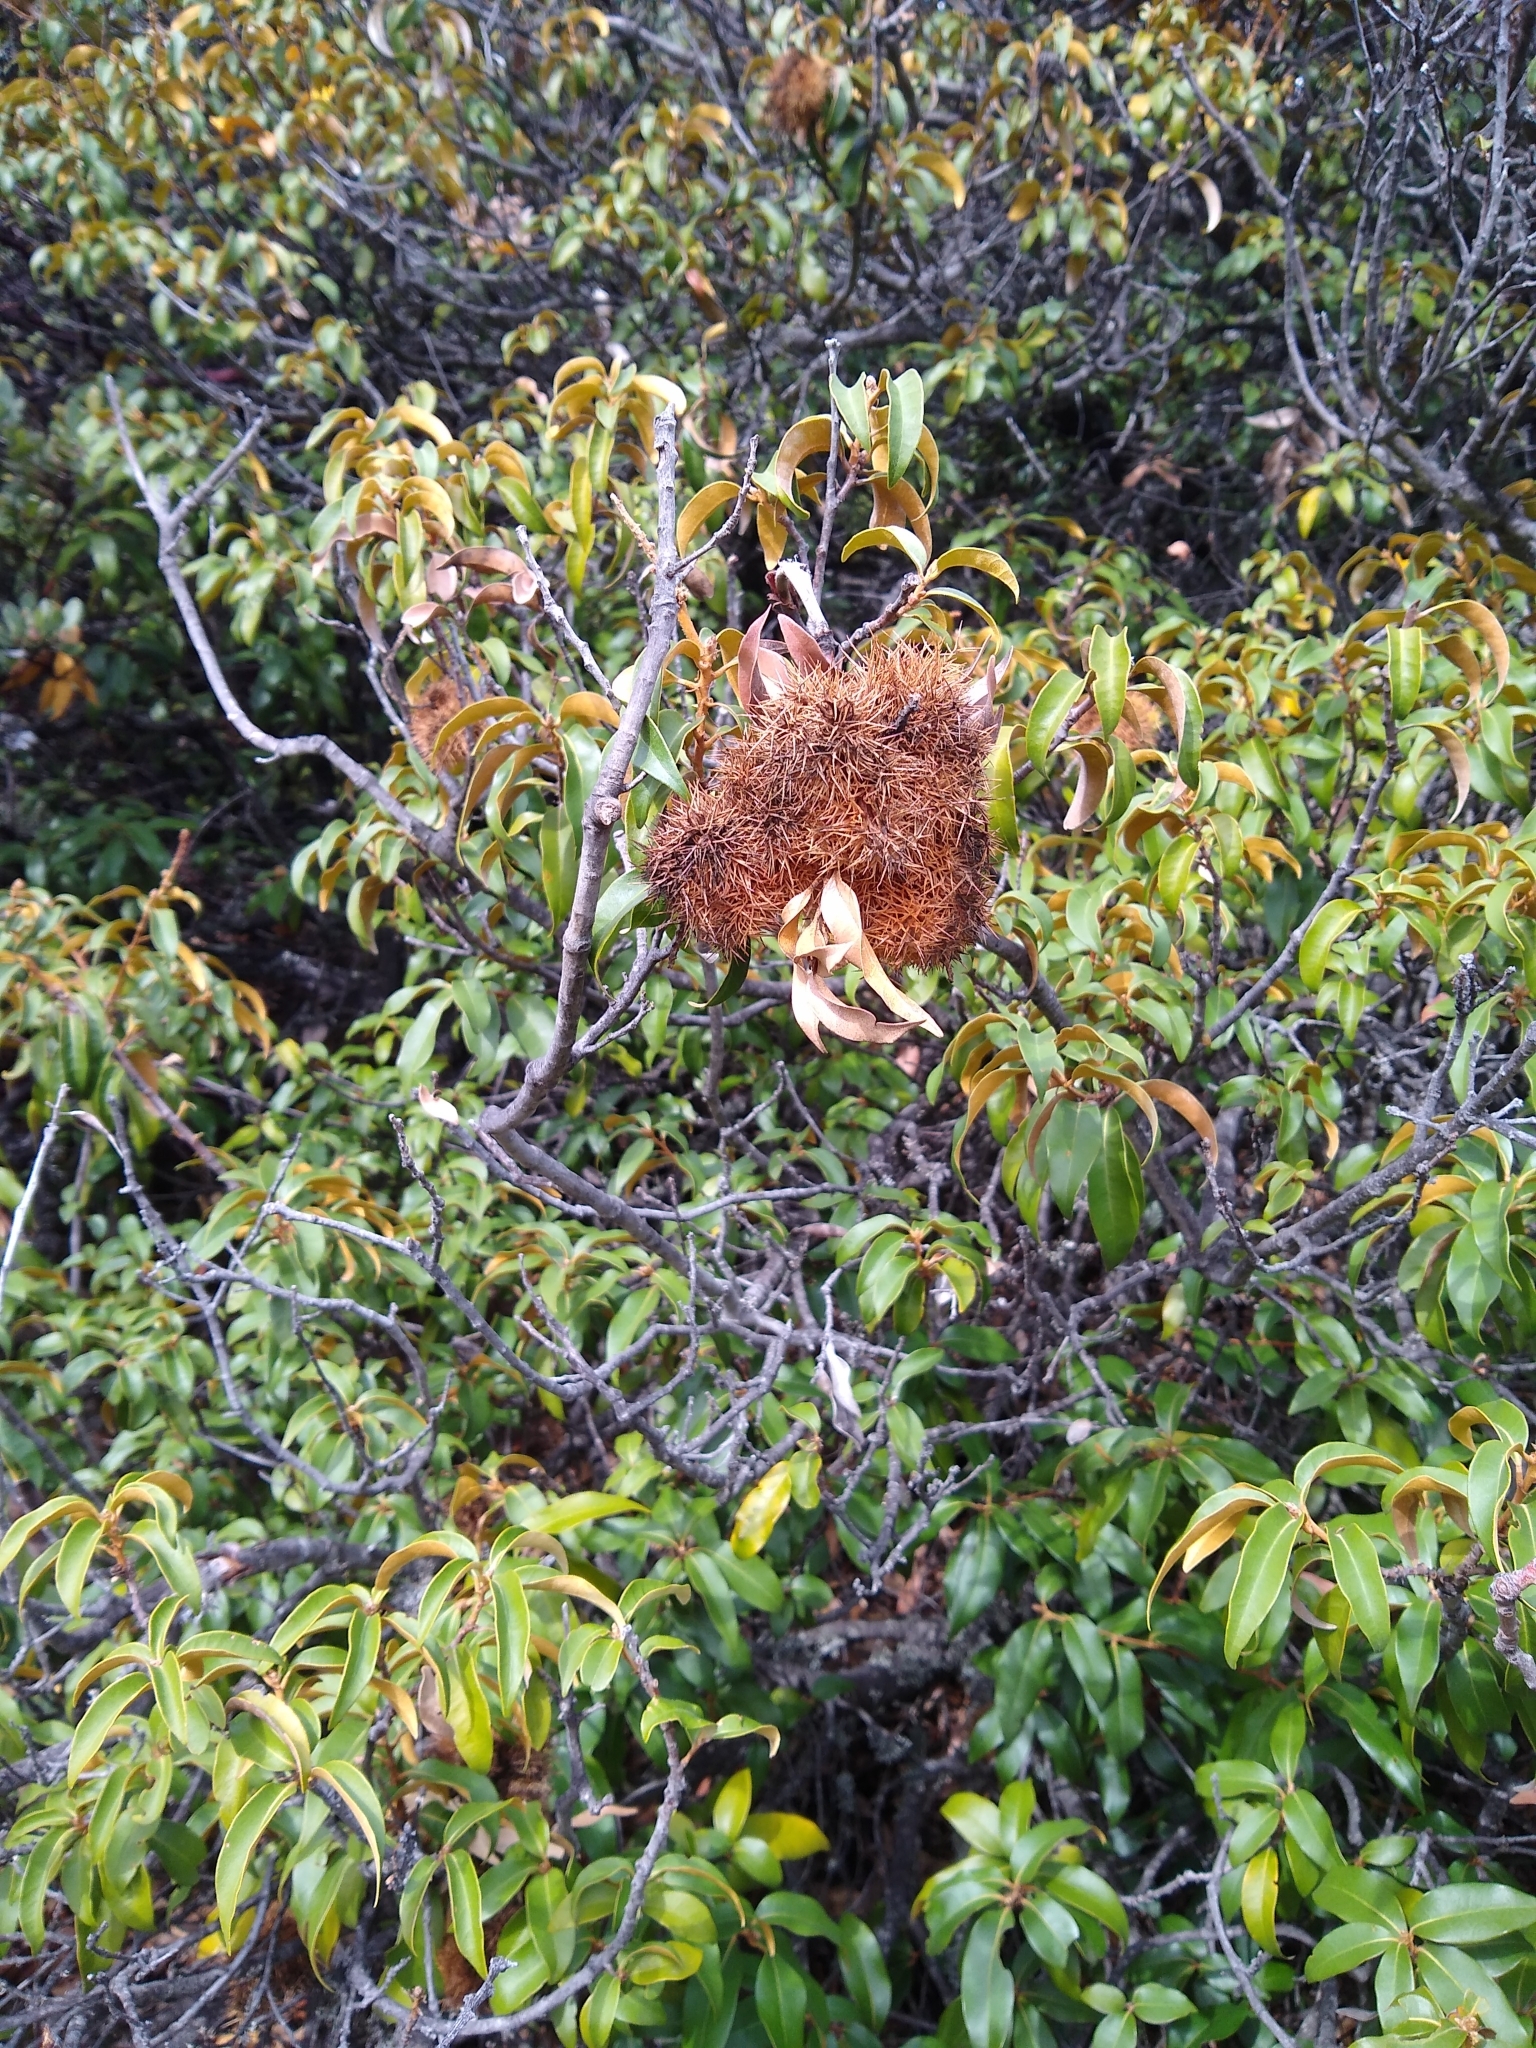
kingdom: Plantae
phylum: Tracheophyta
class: Magnoliopsida
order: Fagales
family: Fagaceae
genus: Chrysolepis
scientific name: Chrysolepis chrysophylla
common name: Giant chinquapin
